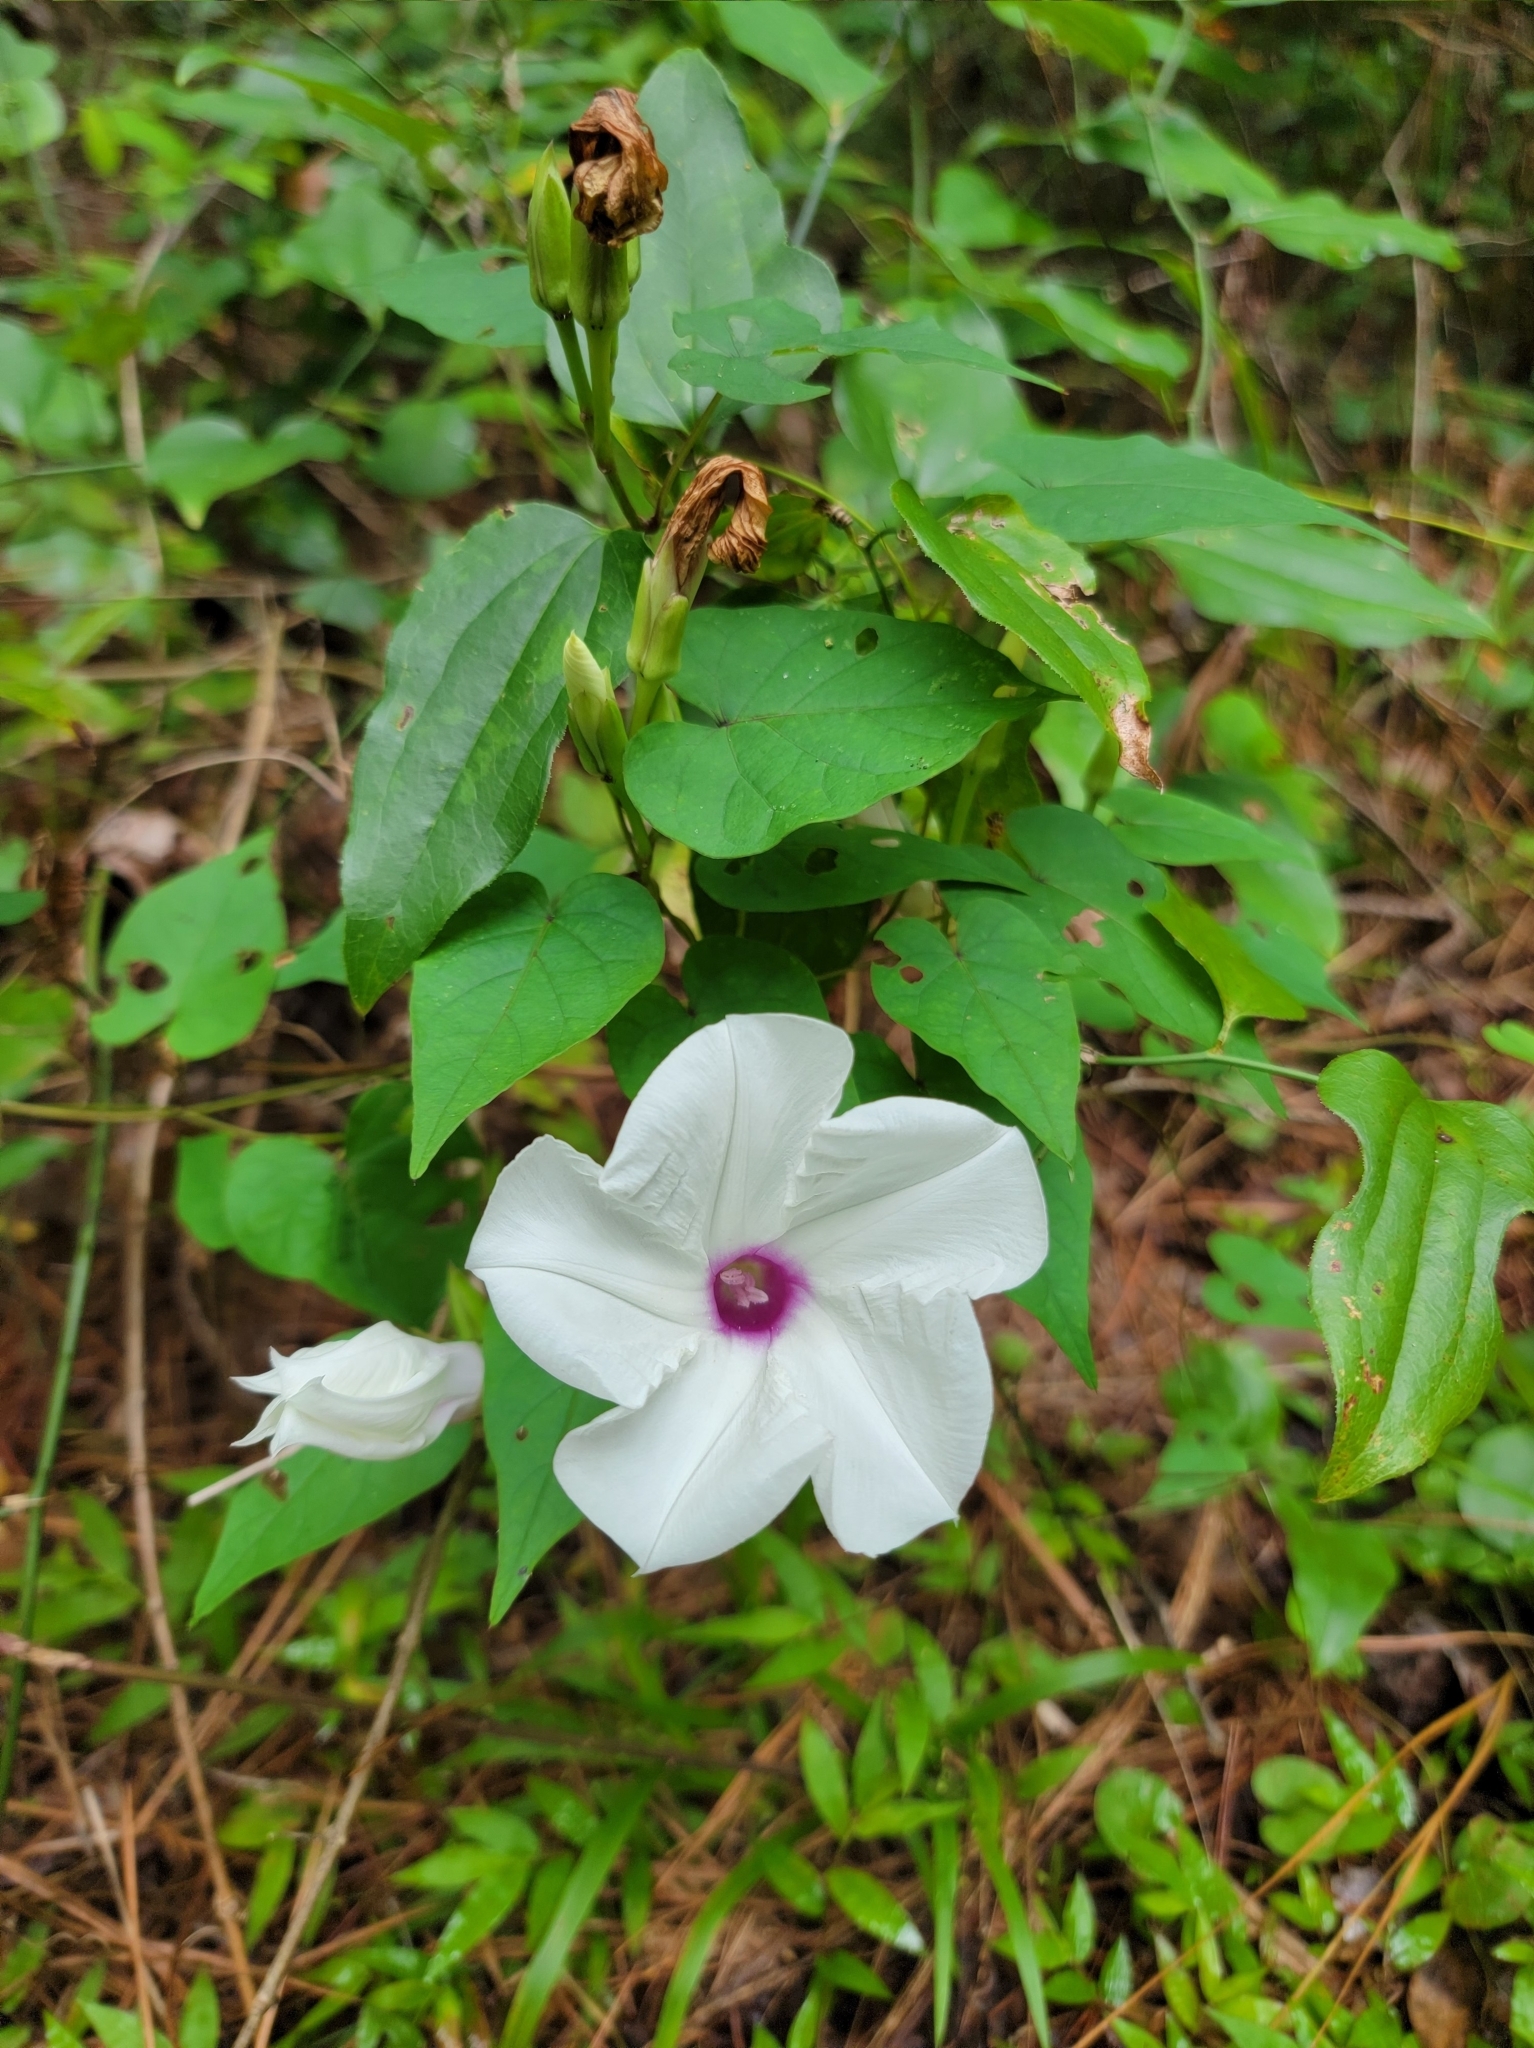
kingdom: Plantae
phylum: Tracheophyta
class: Magnoliopsida
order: Solanales
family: Convolvulaceae
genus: Ipomoea
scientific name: Ipomoea pandurata
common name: Man-of-the-earth
